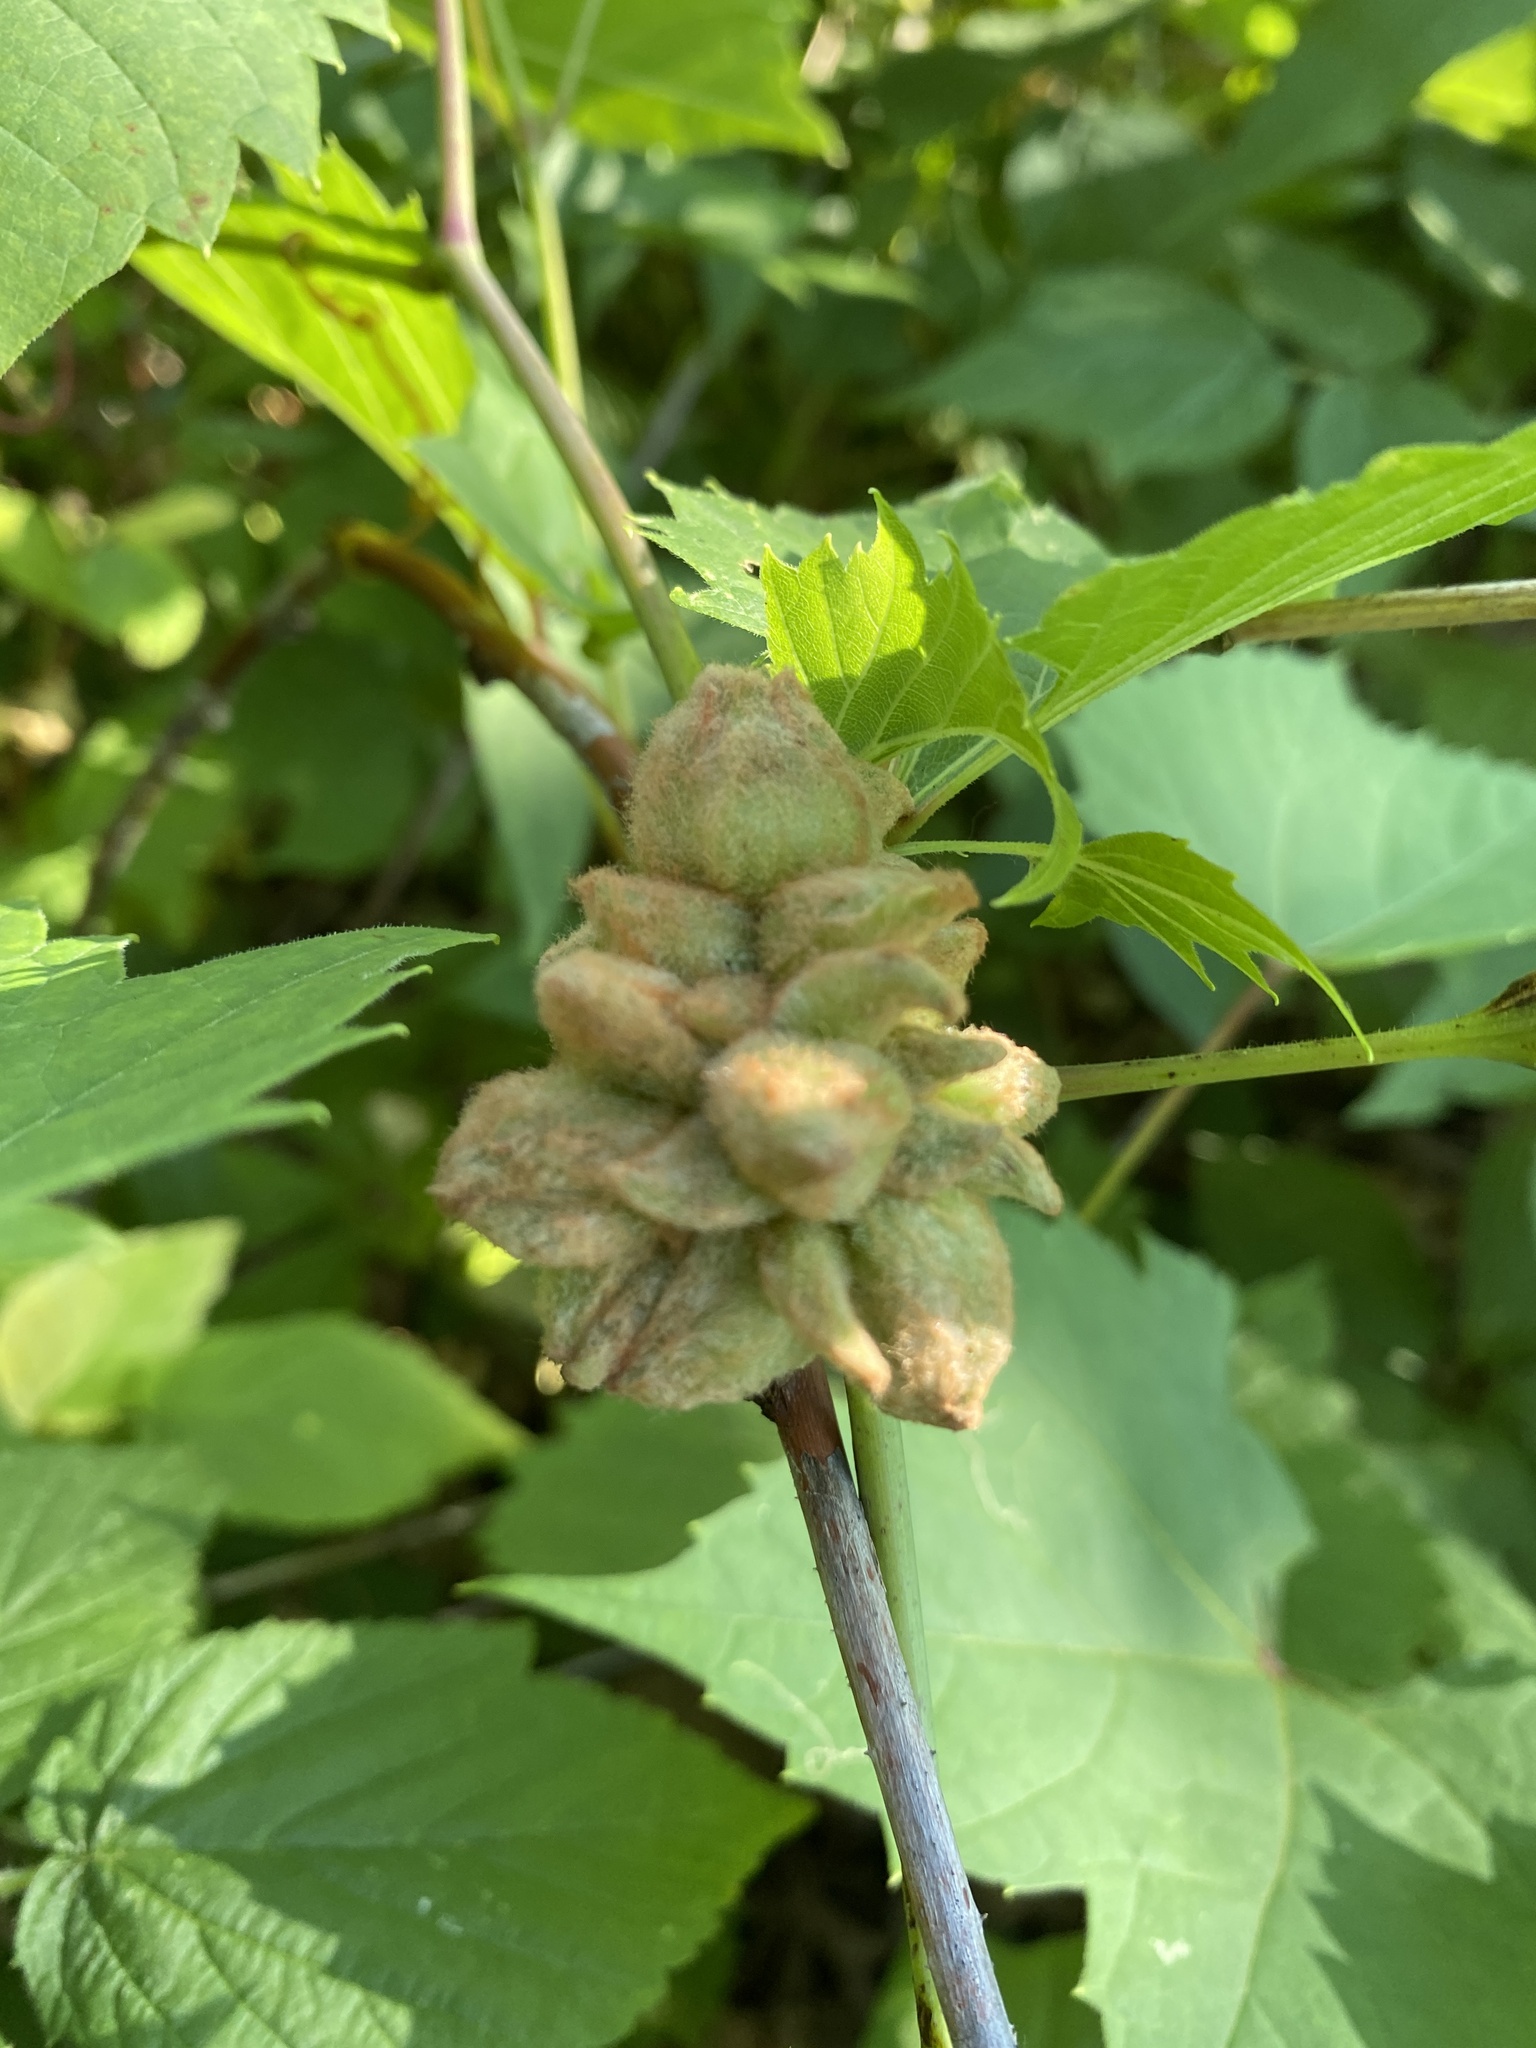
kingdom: Animalia
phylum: Arthropoda
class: Insecta
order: Diptera
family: Cecidomyiidae
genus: Ampelomyia
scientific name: Ampelomyia vitiscoryloides
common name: Grape filbert gall
